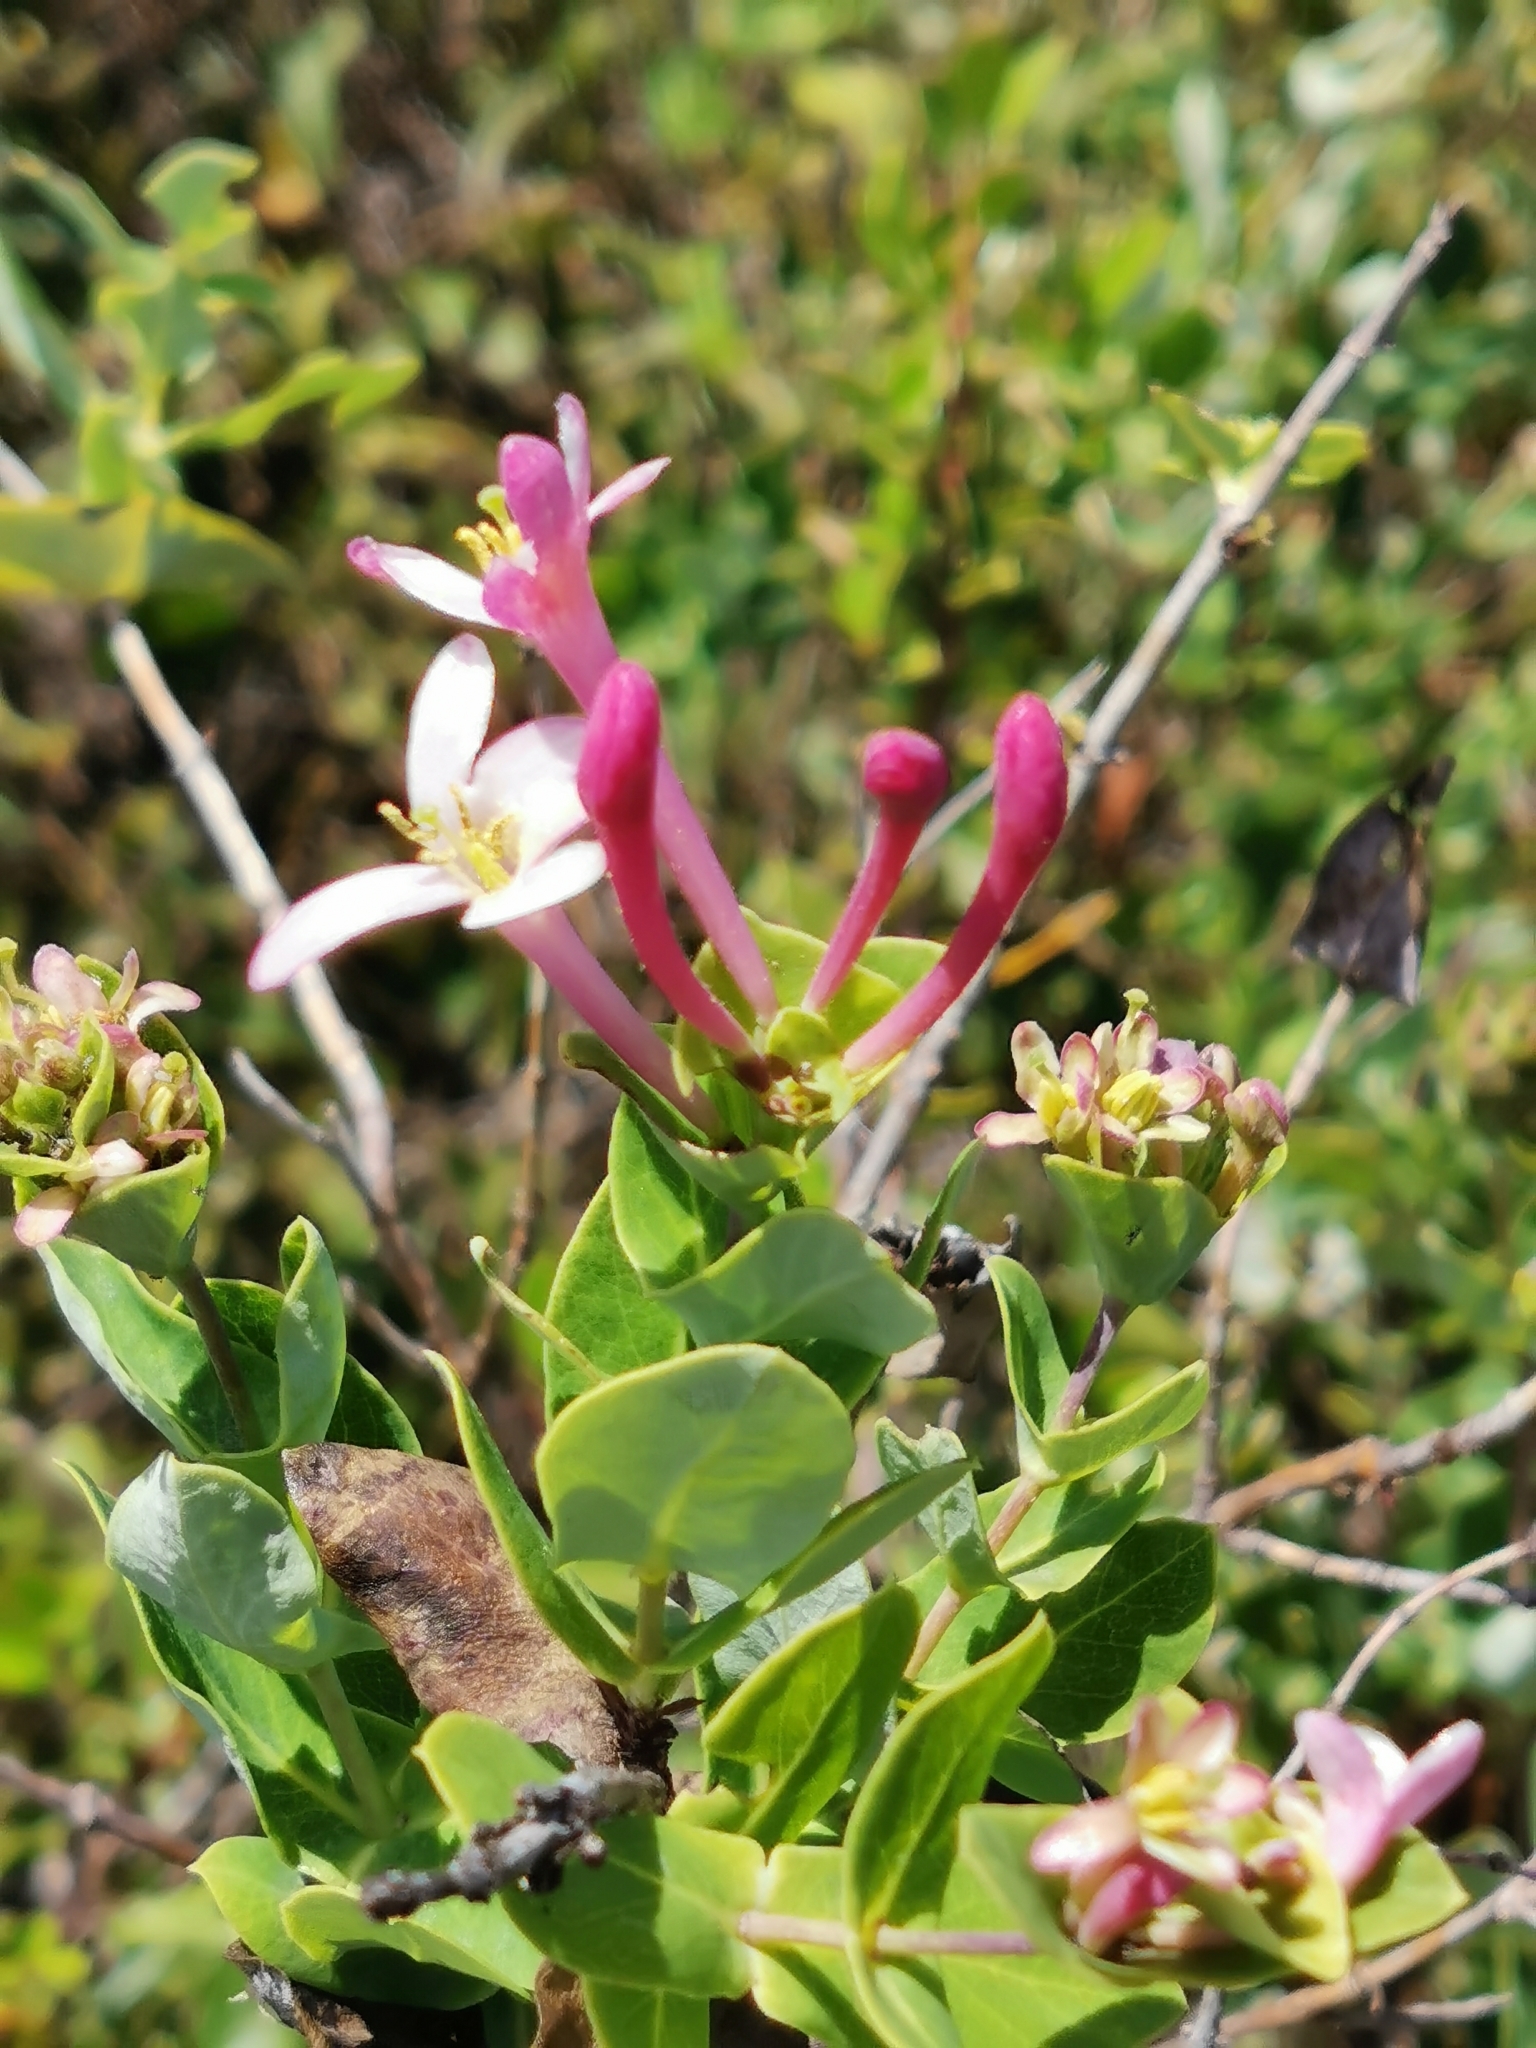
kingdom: Plantae
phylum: Tracheophyta
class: Magnoliopsida
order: Dipsacales
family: Caprifoliaceae
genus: Lonicera
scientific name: Lonicera implexa
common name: Minorca honeysuckle
